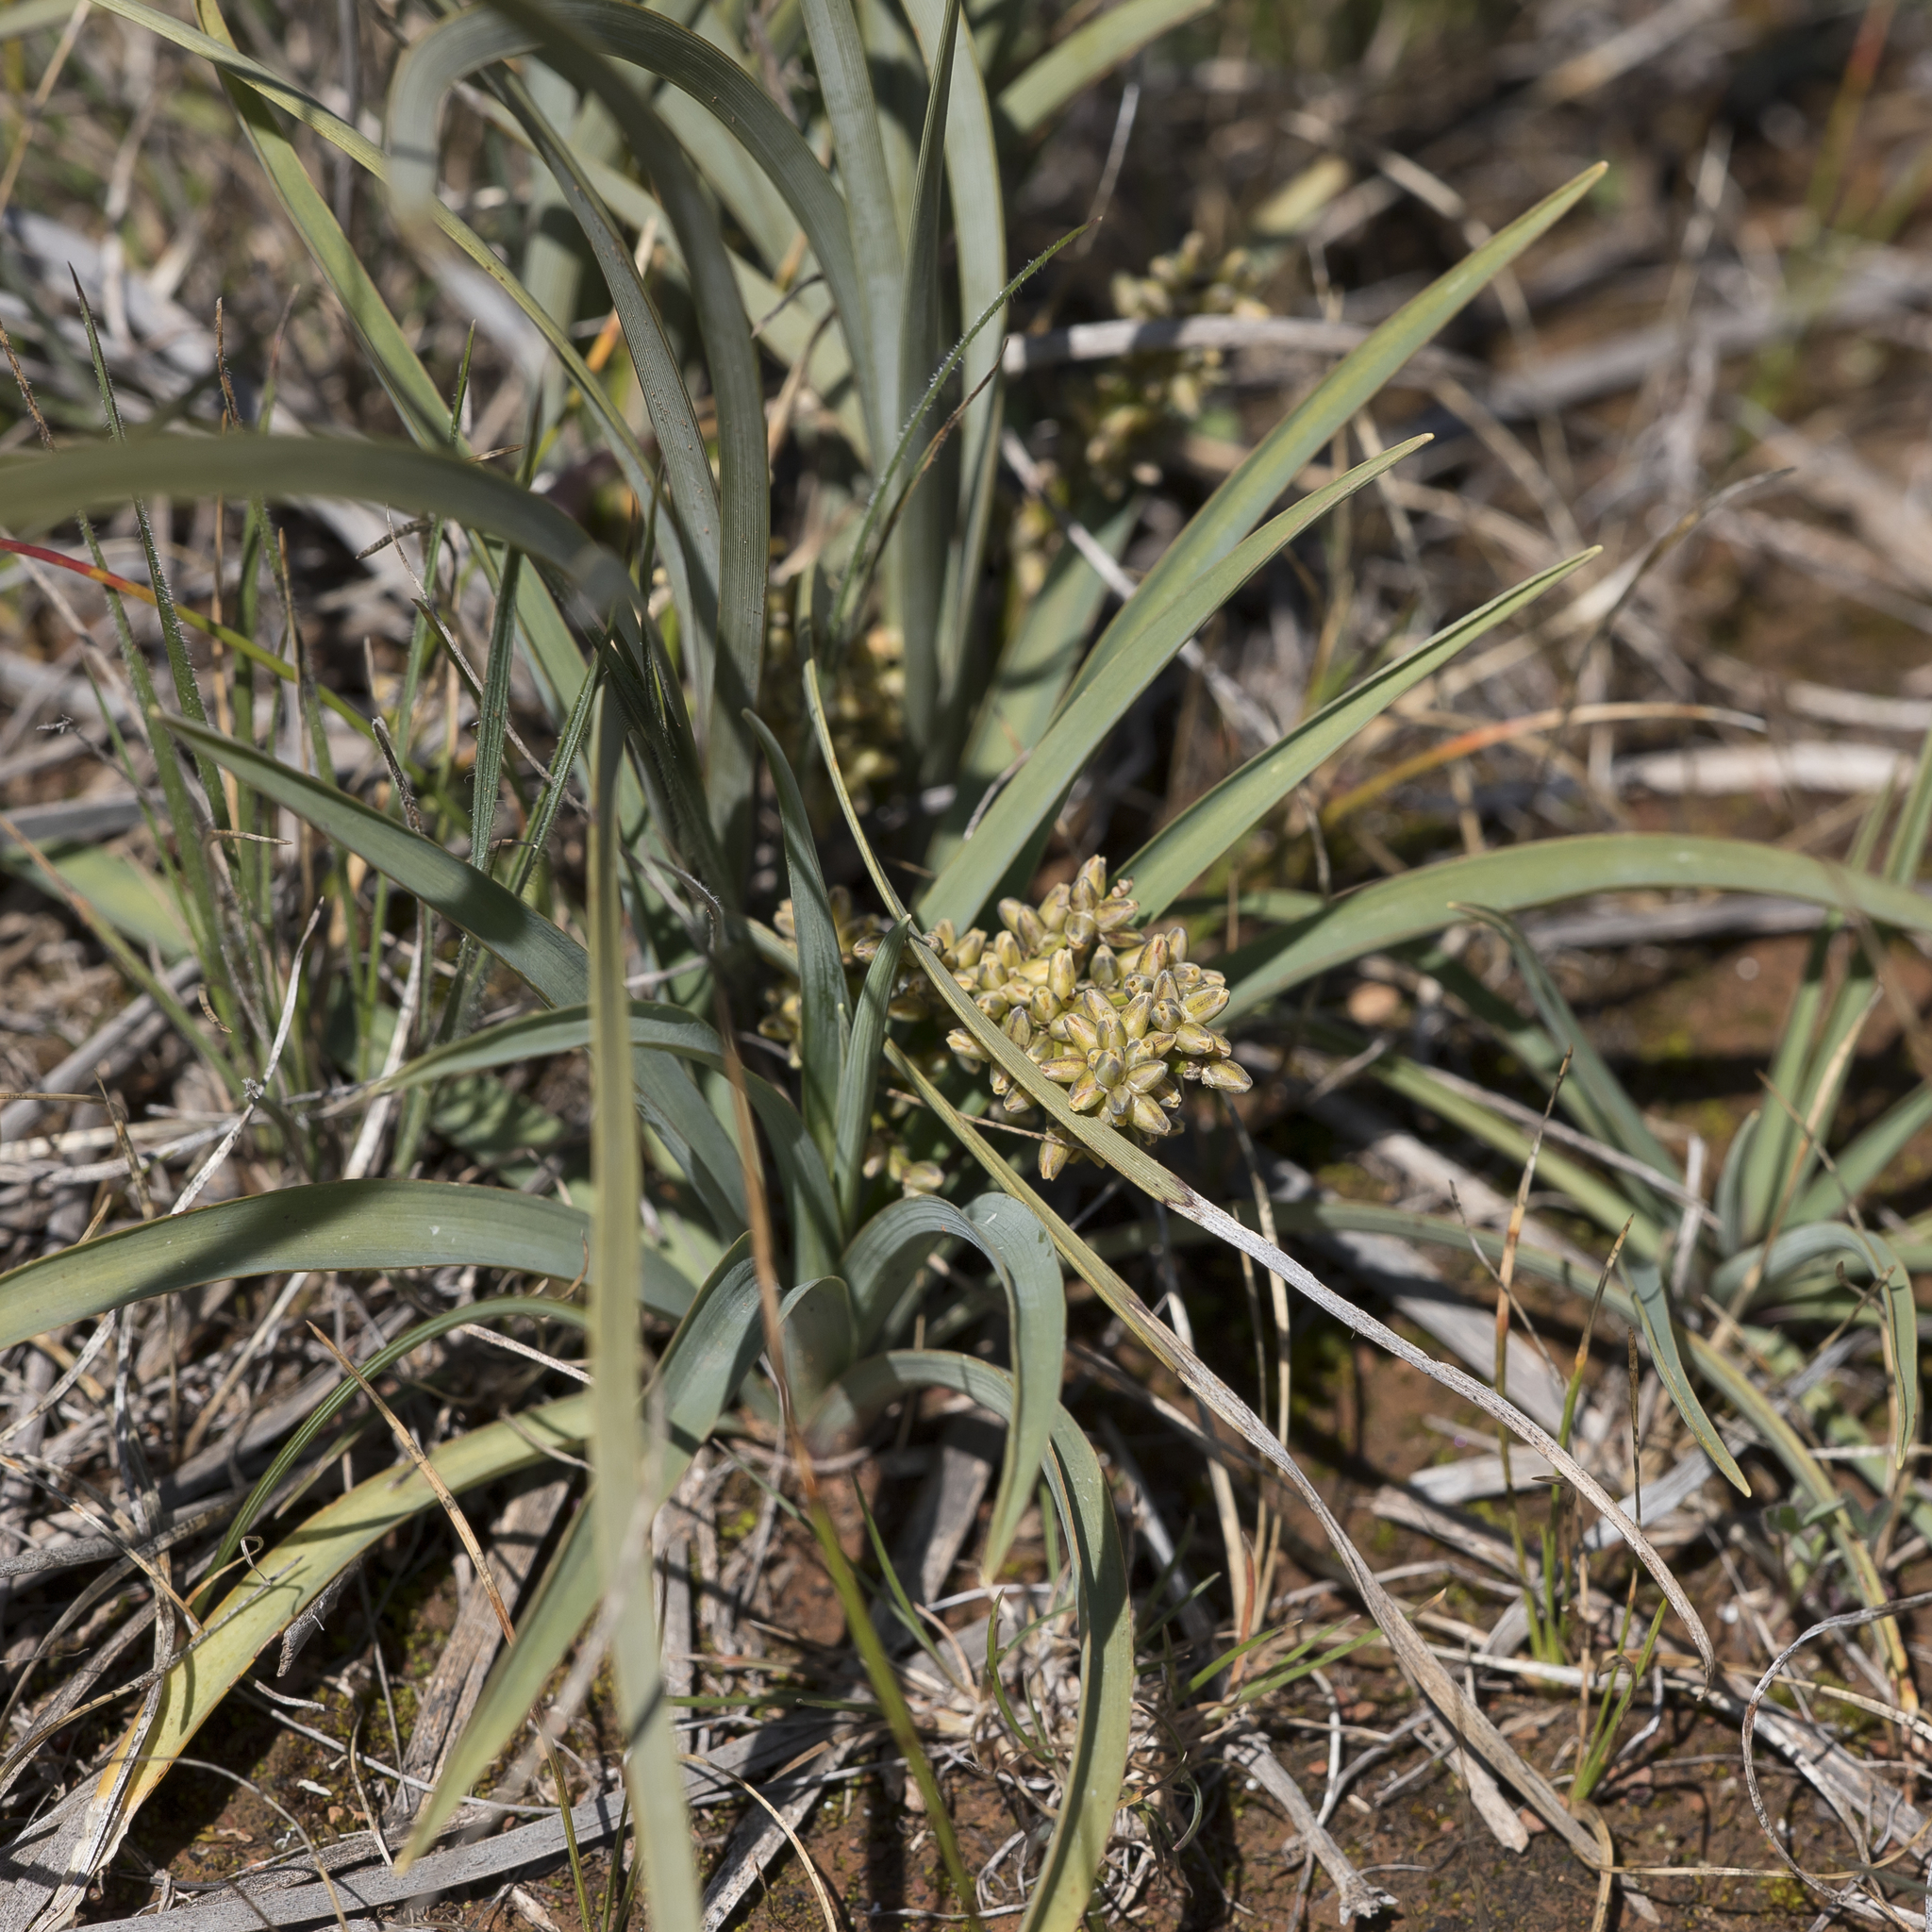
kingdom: Plantae
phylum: Tracheophyta
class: Liliopsida
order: Asparagales
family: Asparagaceae
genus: Lomandra
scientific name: Lomandra multiflora
